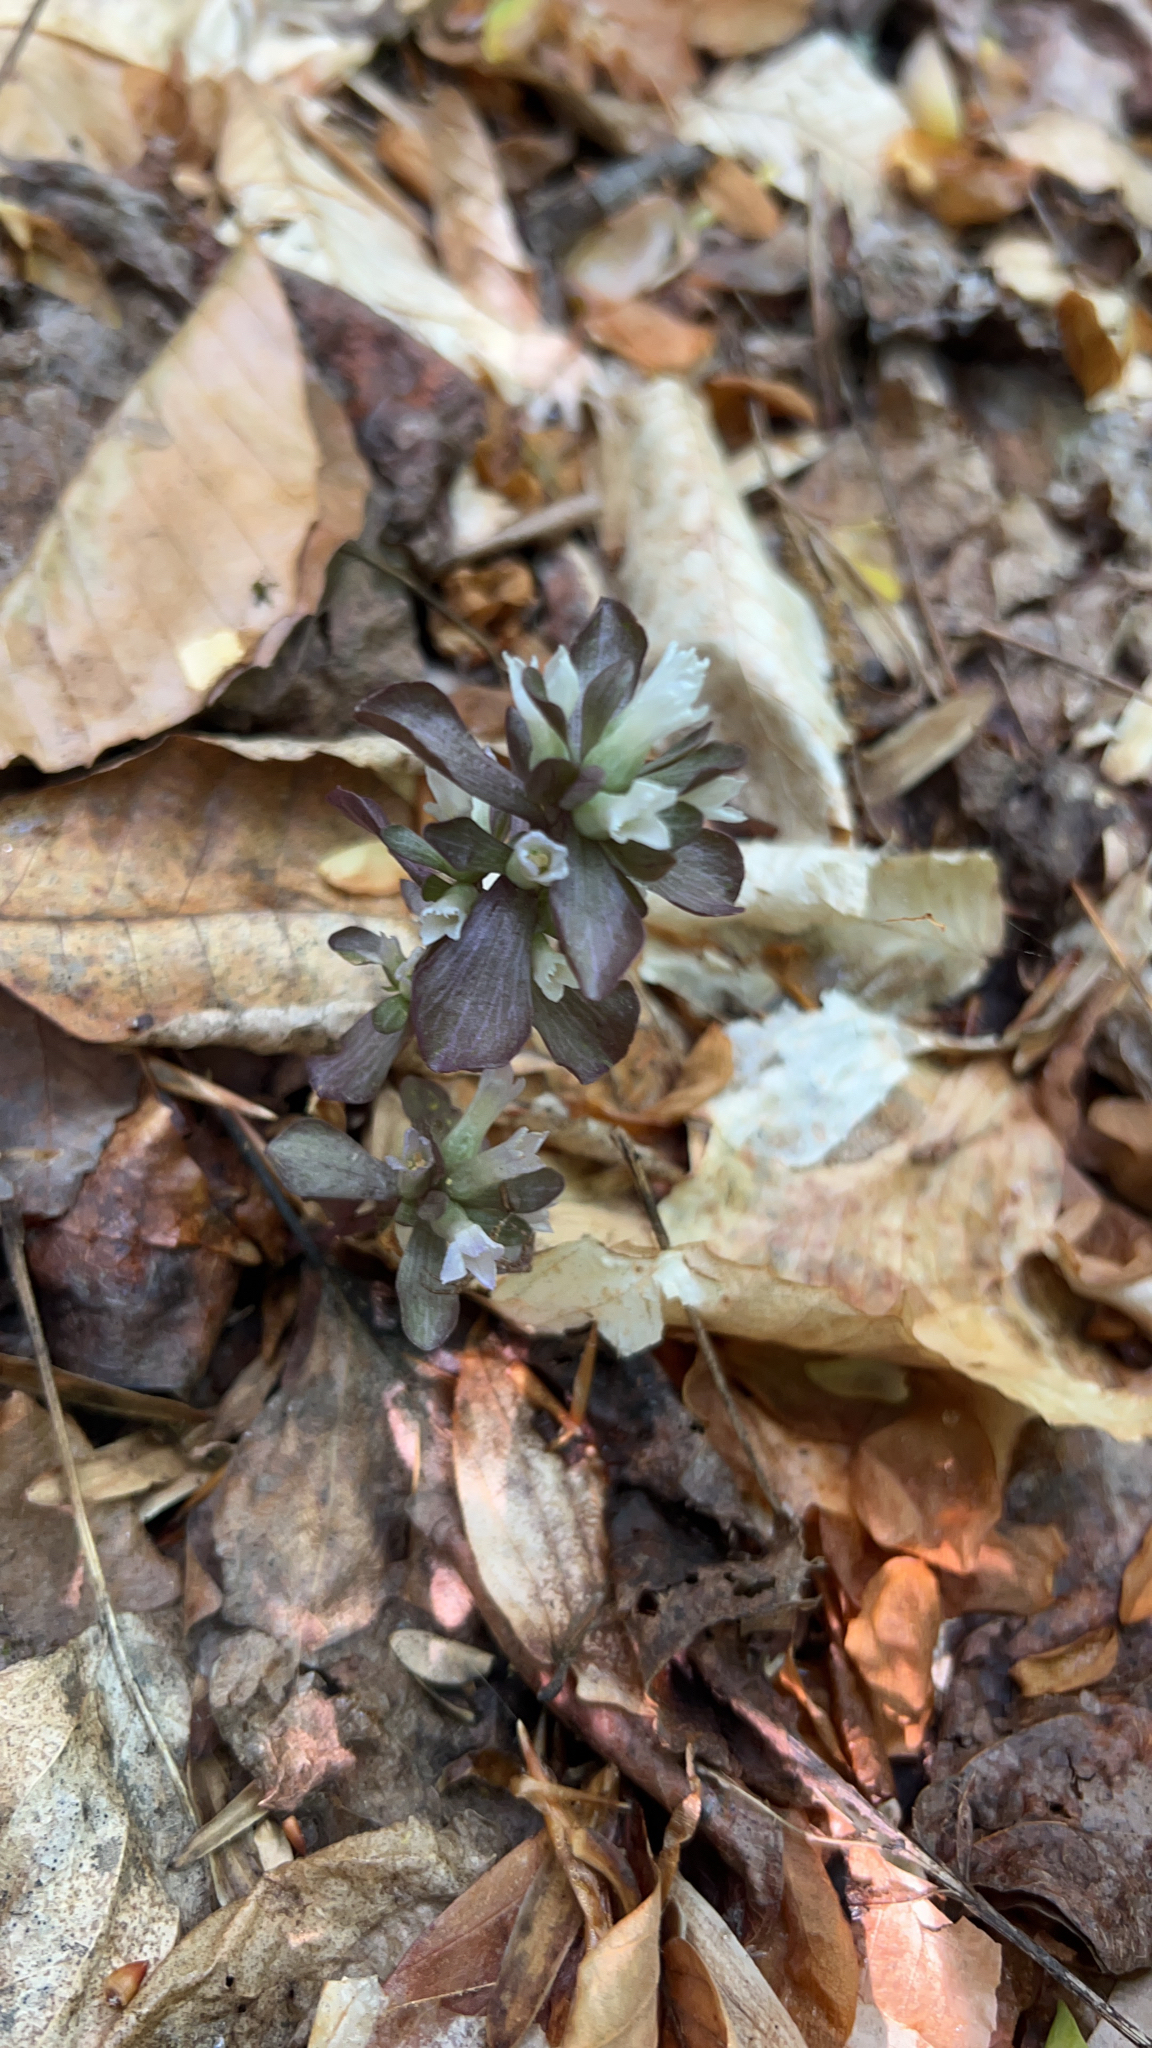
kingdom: Plantae
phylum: Tracheophyta
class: Magnoliopsida
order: Gentianales
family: Gentianaceae
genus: Obolaria
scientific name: Obolaria virginica
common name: Pennywort
